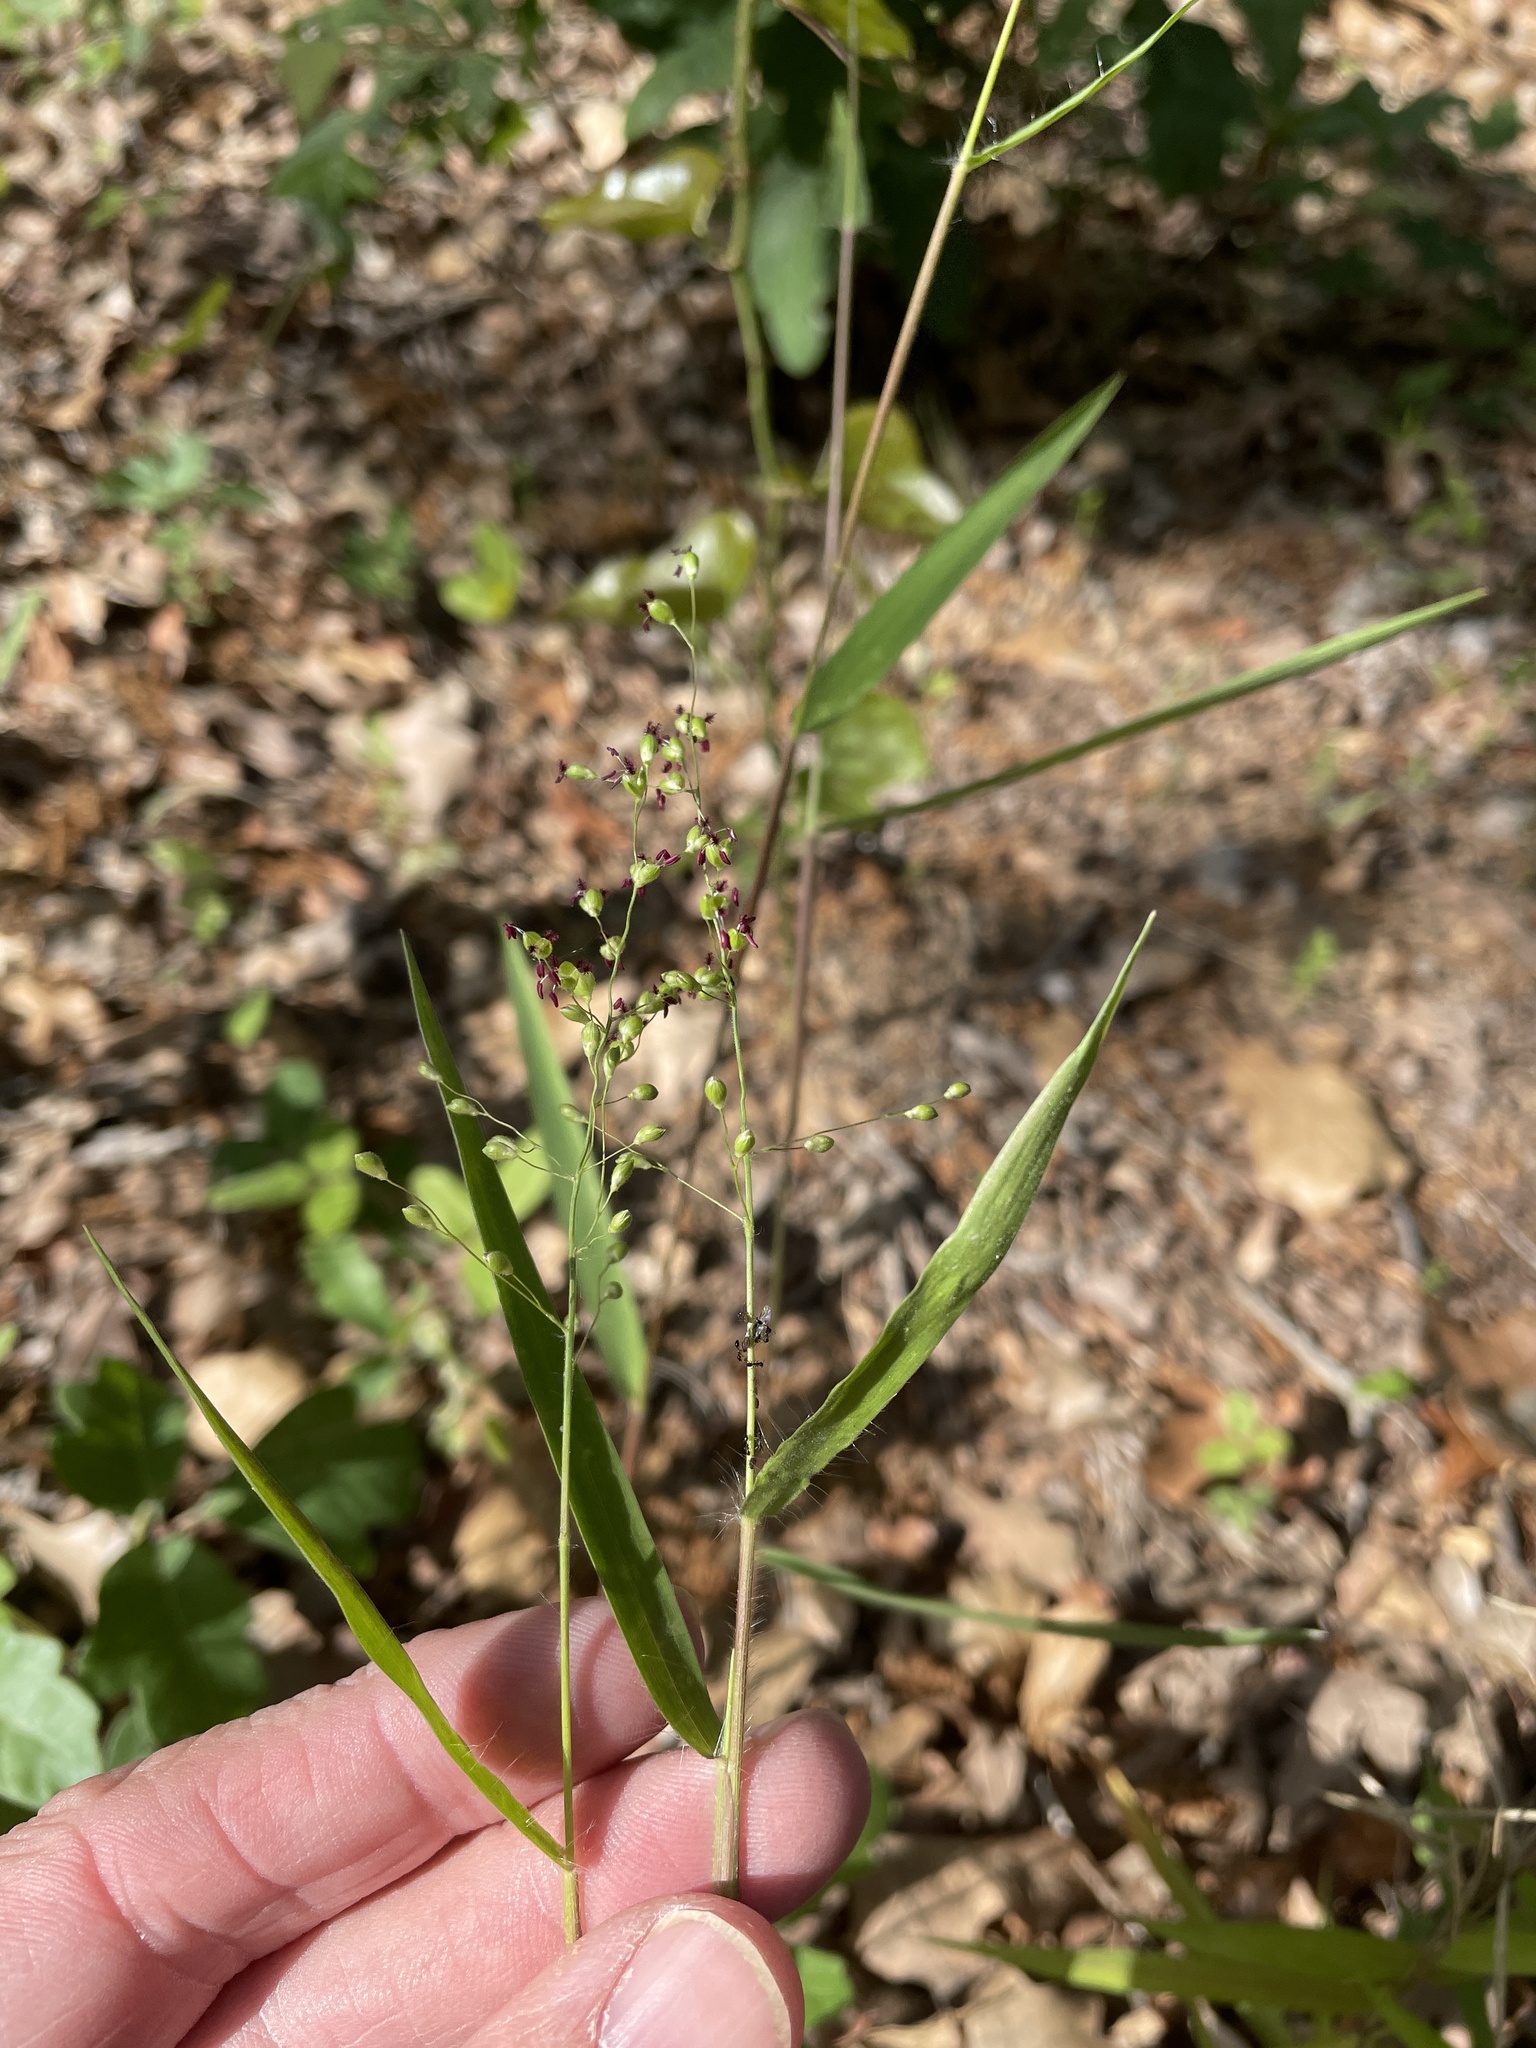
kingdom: Plantae
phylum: Tracheophyta
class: Liliopsida
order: Poales
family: Poaceae
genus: Dichanthelium
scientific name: Dichanthelium oligosanthes
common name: Few-anther obscuregrass
